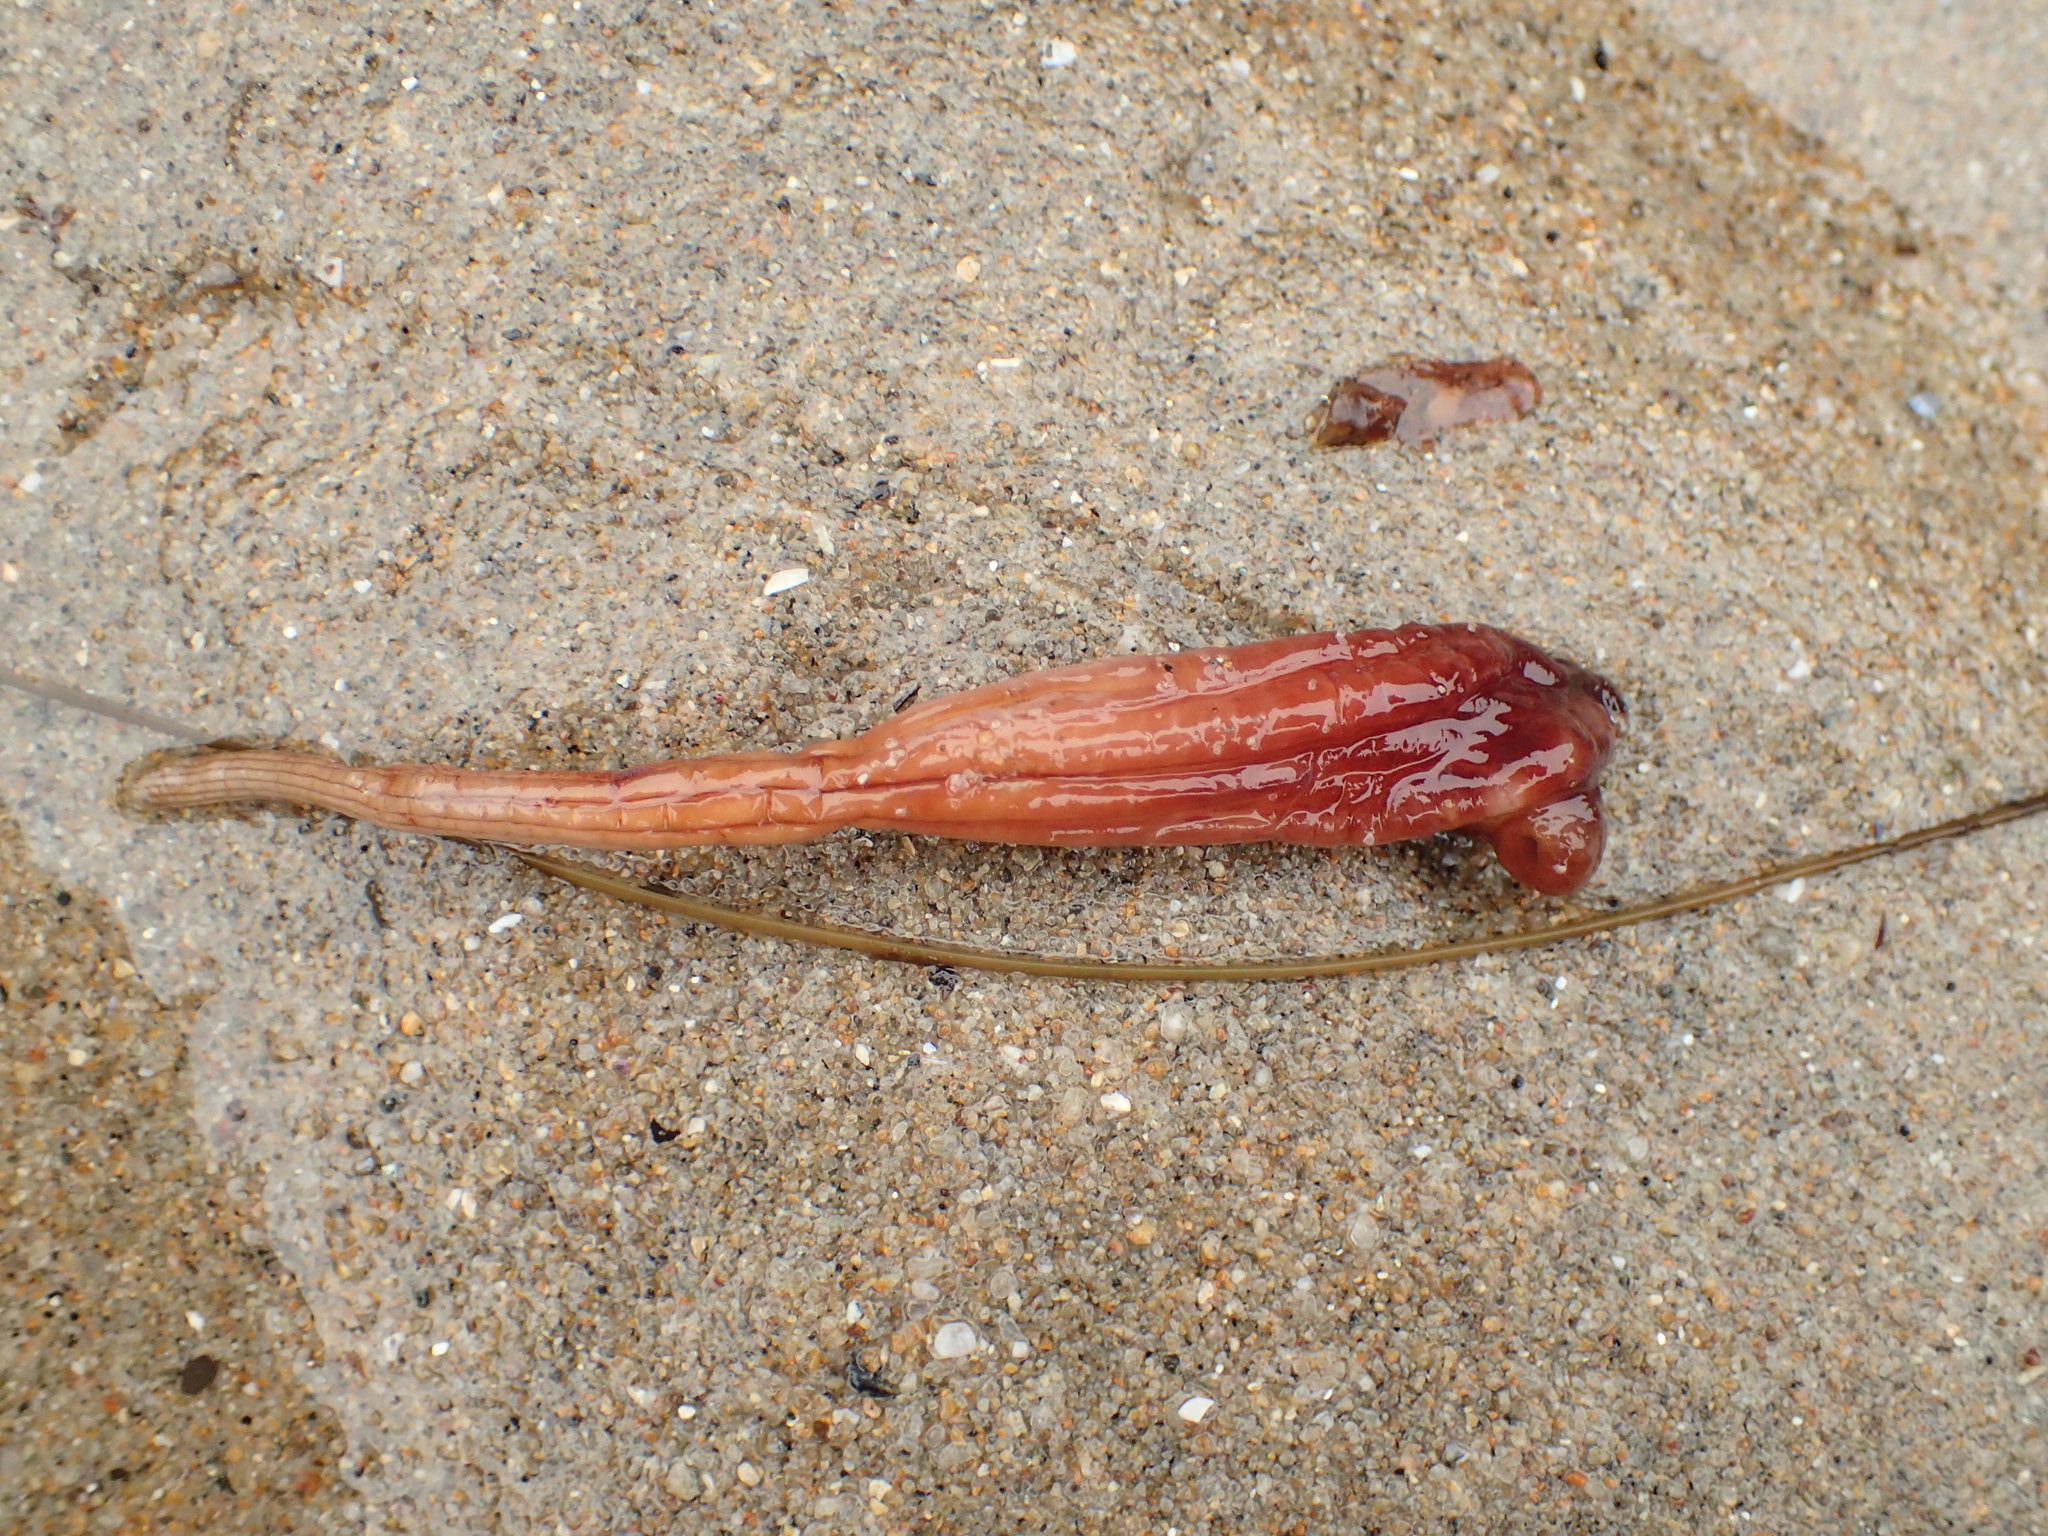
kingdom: Animalia
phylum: Chordata
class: Ascidiacea
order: Stolidobranchia
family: Styelidae
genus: Styela
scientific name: Styela montereyensis
